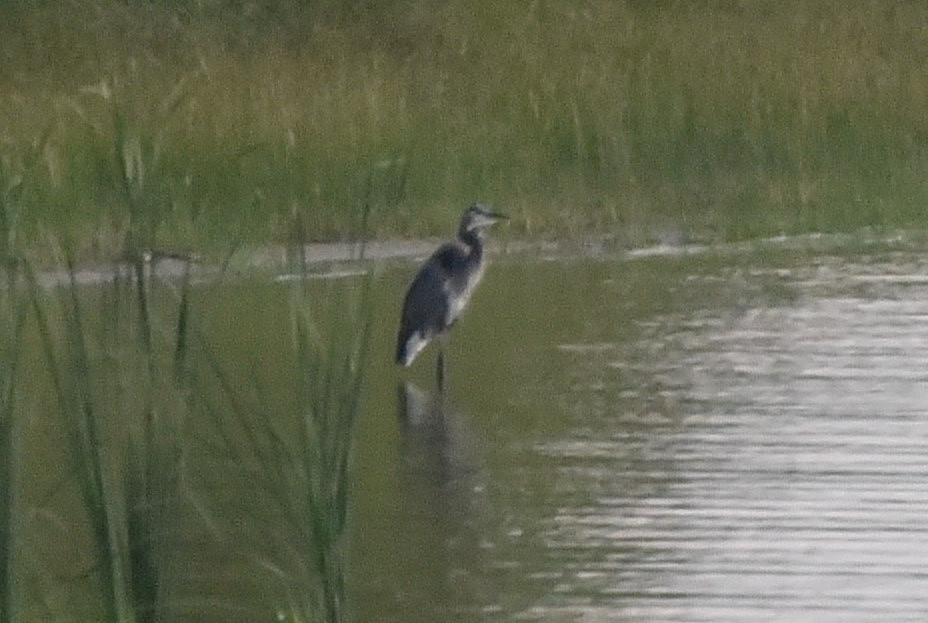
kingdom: Animalia
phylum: Chordata
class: Aves
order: Pelecaniformes
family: Ardeidae
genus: Ardea
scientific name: Ardea herodias
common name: Great blue heron
